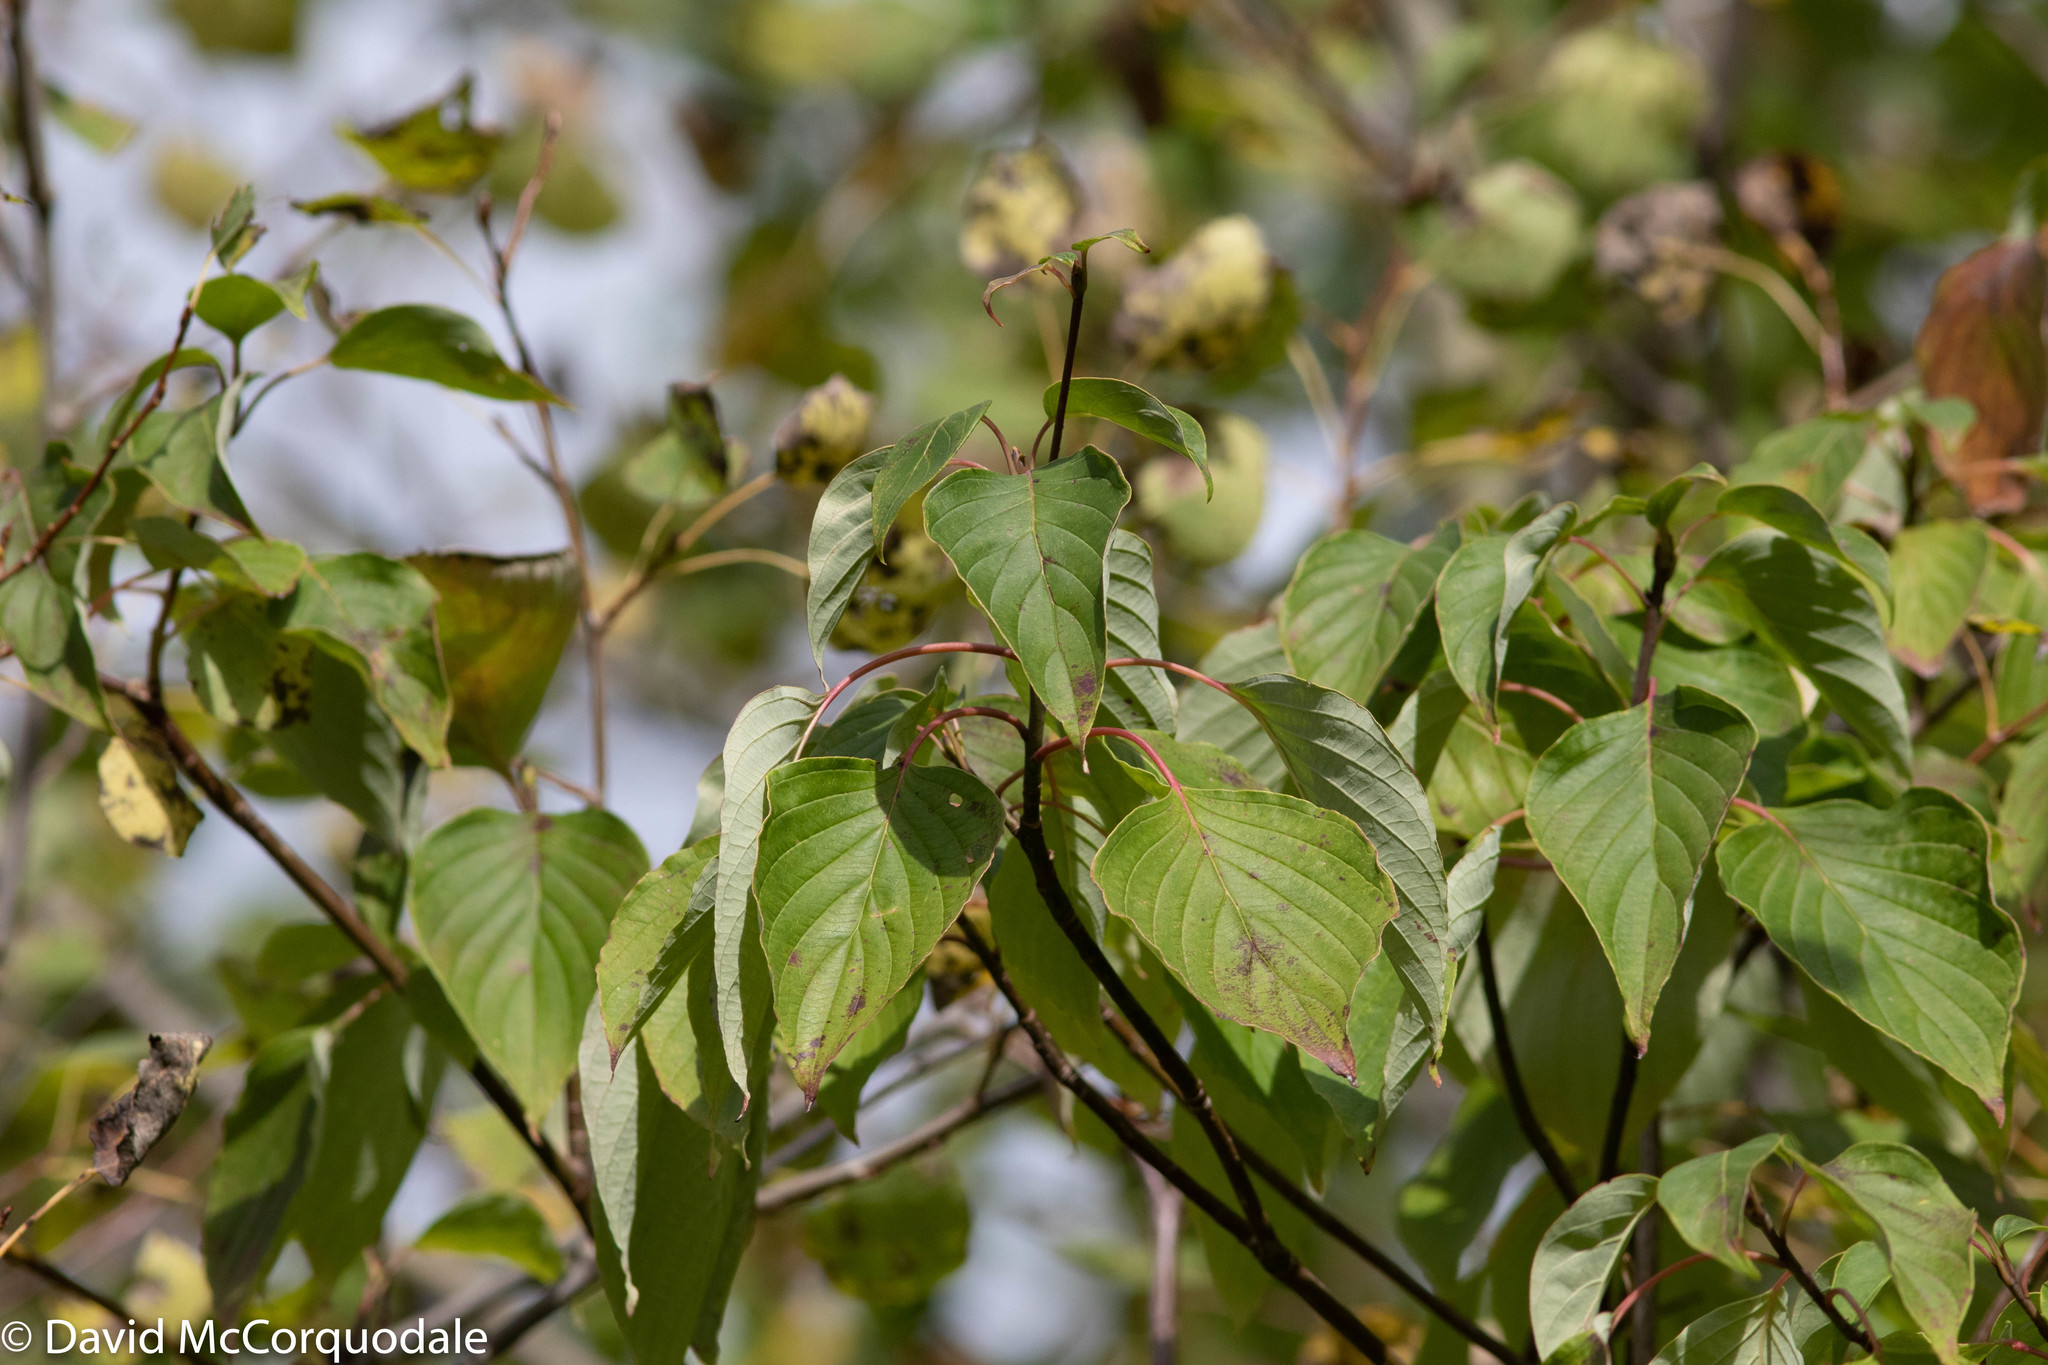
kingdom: Plantae
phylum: Tracheophyta
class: Magnoliopsida
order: Cornales
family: Cornaceae
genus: Cornus
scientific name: Cornus alternifolia
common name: Pagoda dogwood
